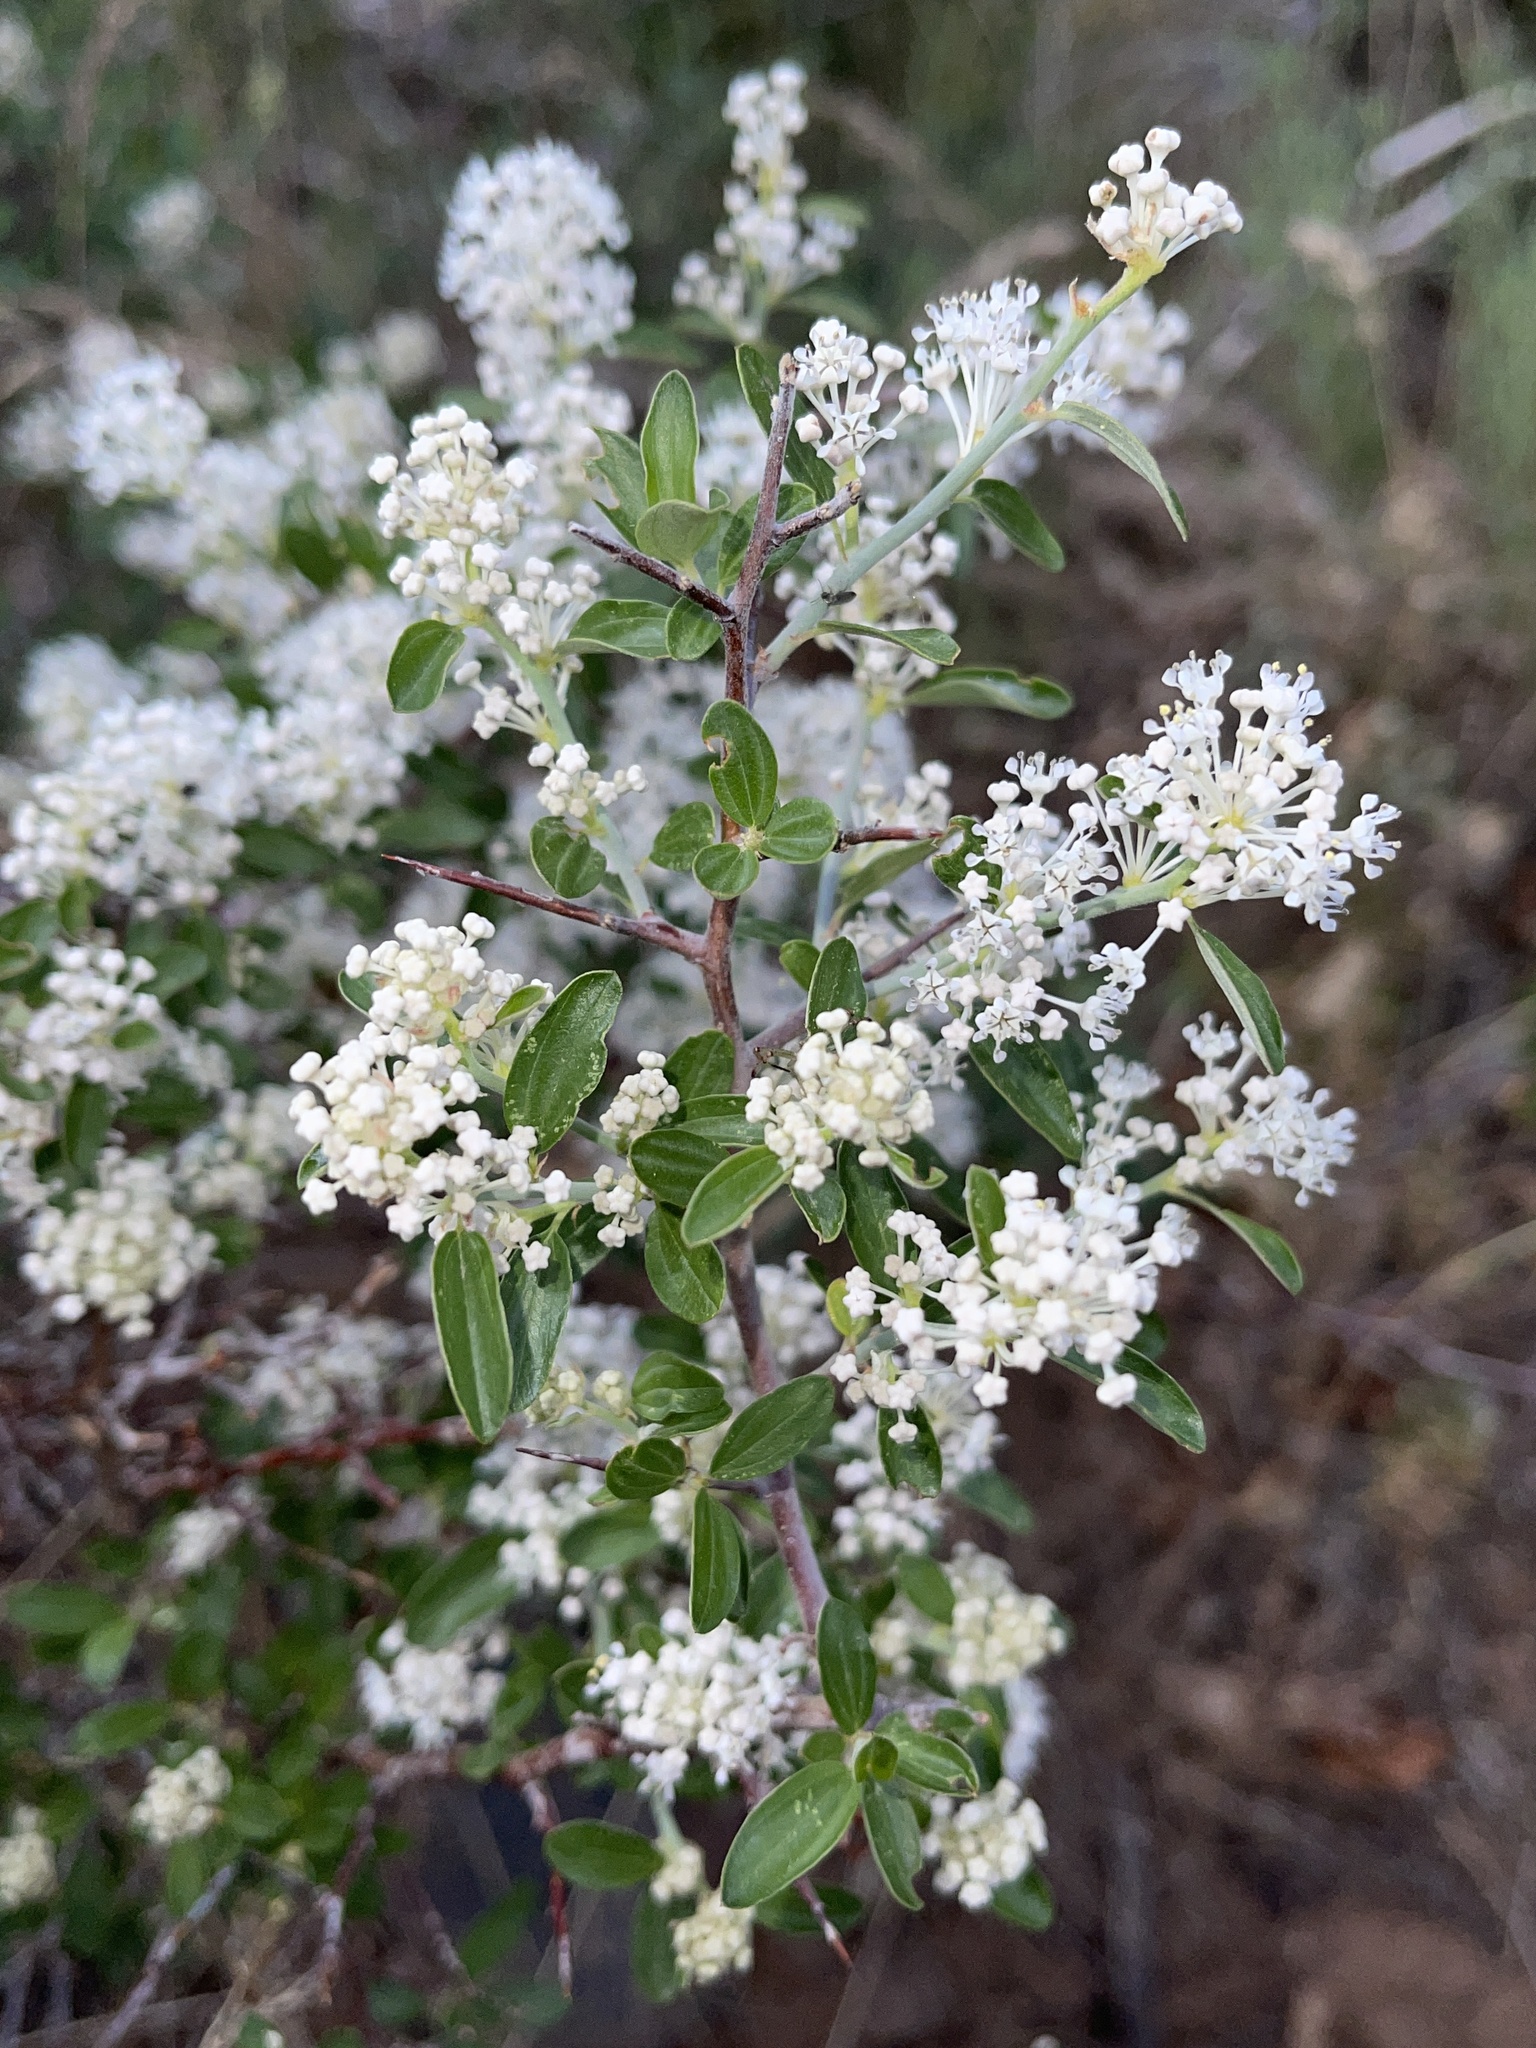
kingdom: Plantae
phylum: Tracheophyta
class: Magnoliopsida
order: Rosales
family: Rhamnaceae
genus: Ceanothus
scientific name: Ceanothus fendleri
